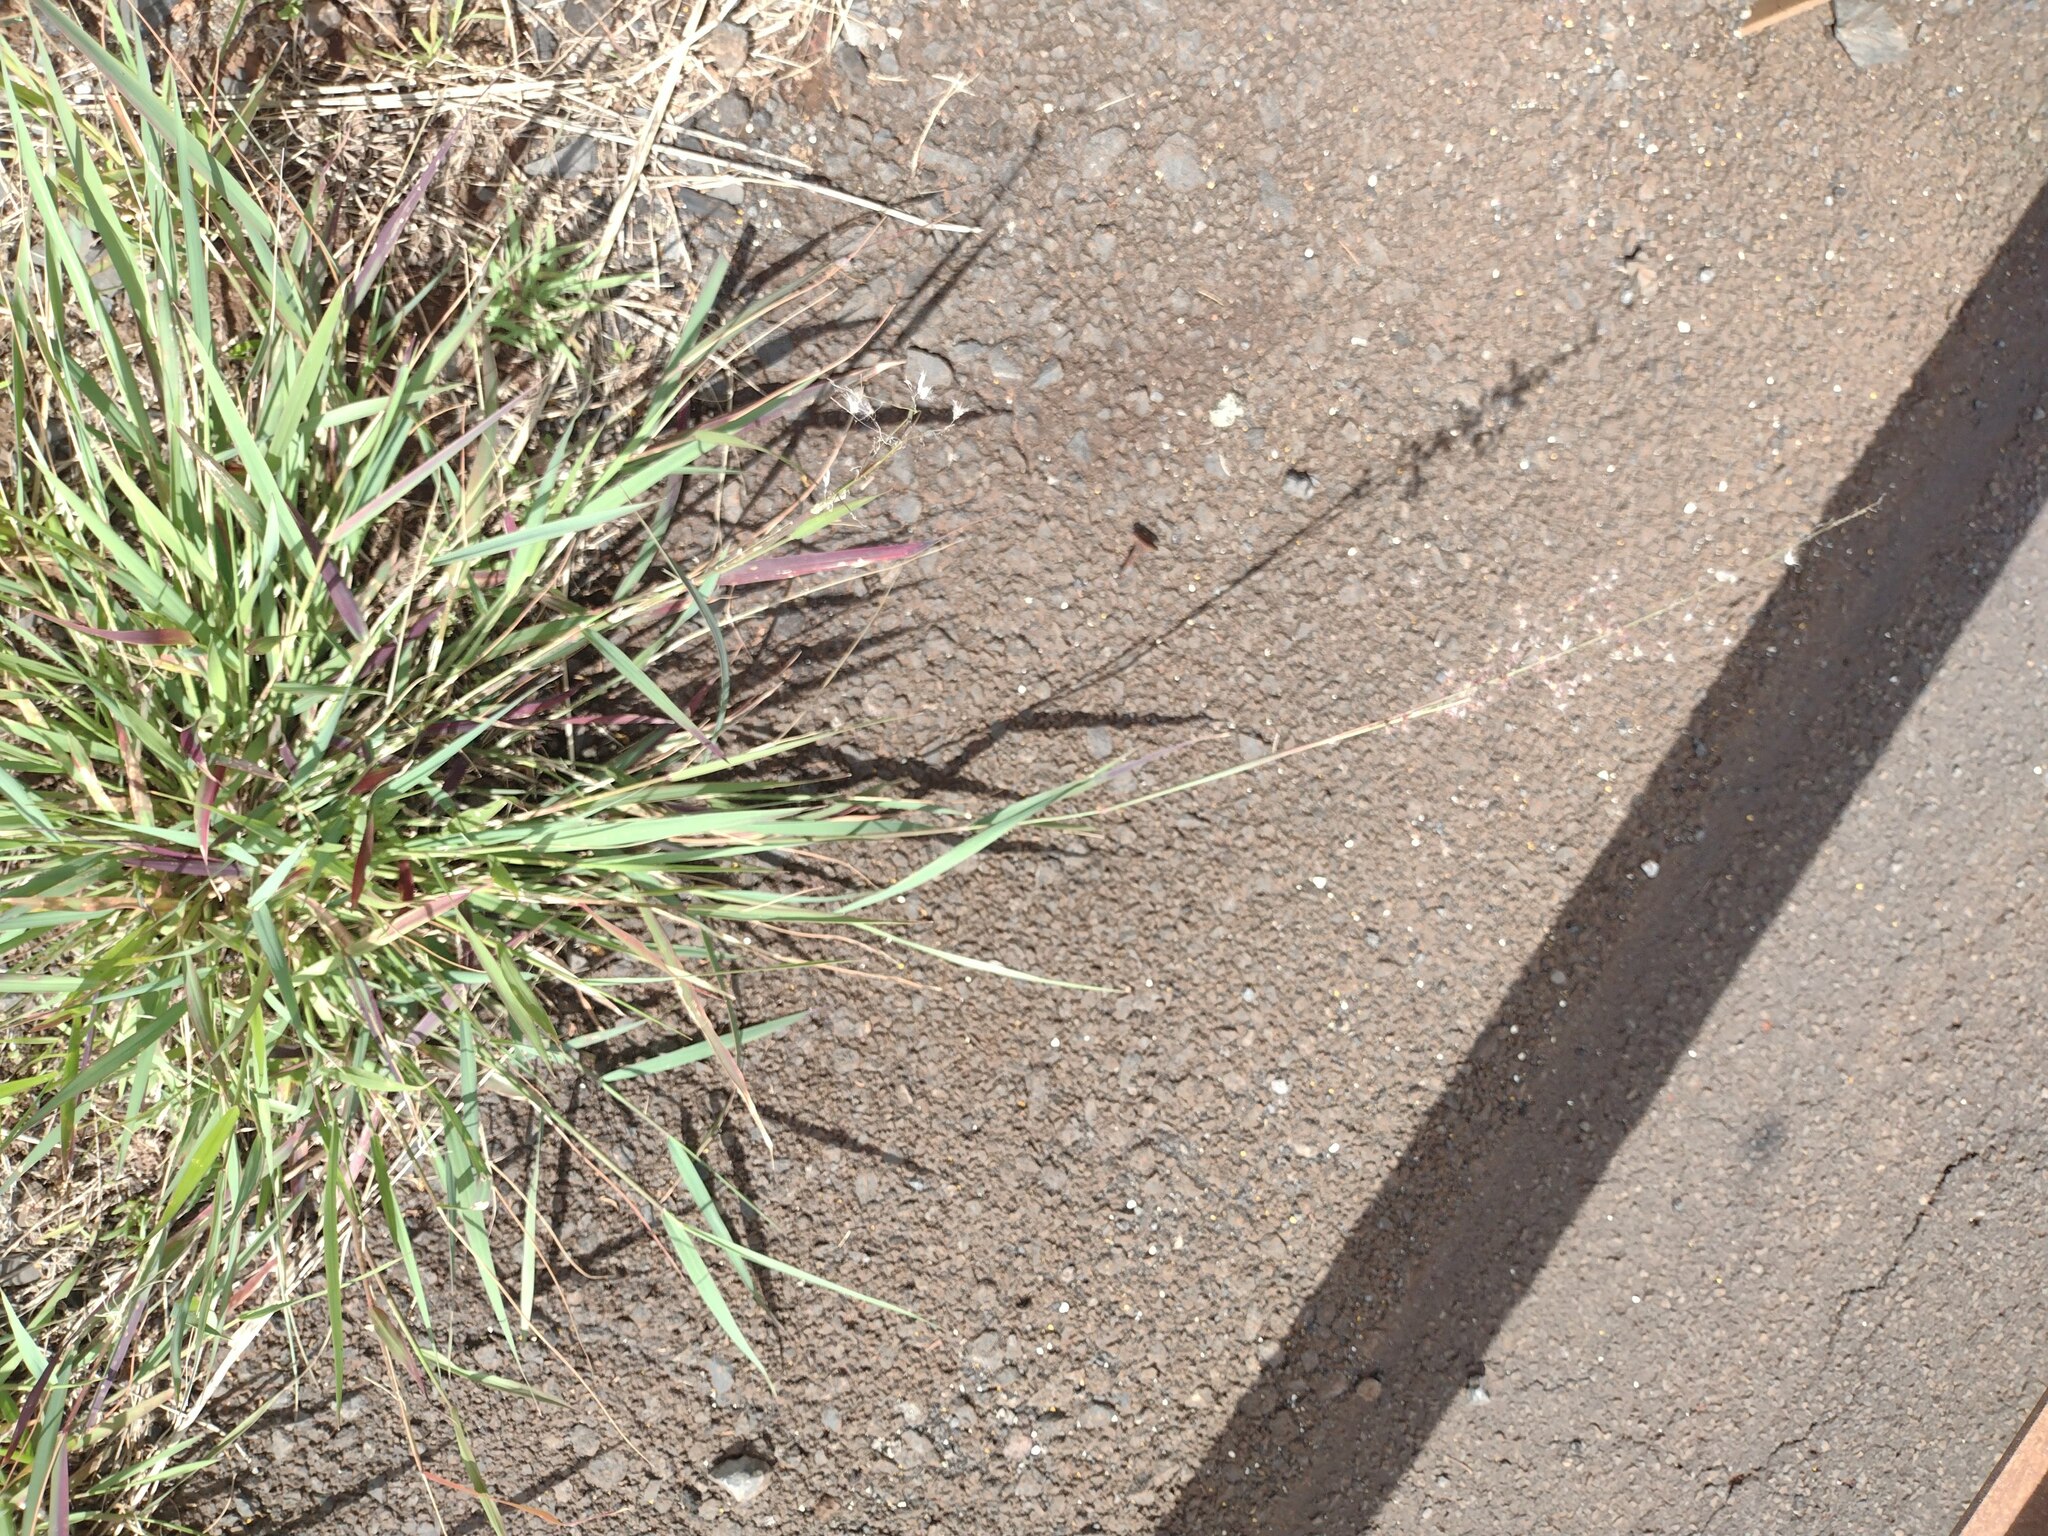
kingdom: Plantae
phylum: Tracheophyta
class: Liliopsida
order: Poales
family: Poaceae
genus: Melinis
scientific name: Melinis repens
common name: Rose natal grass
